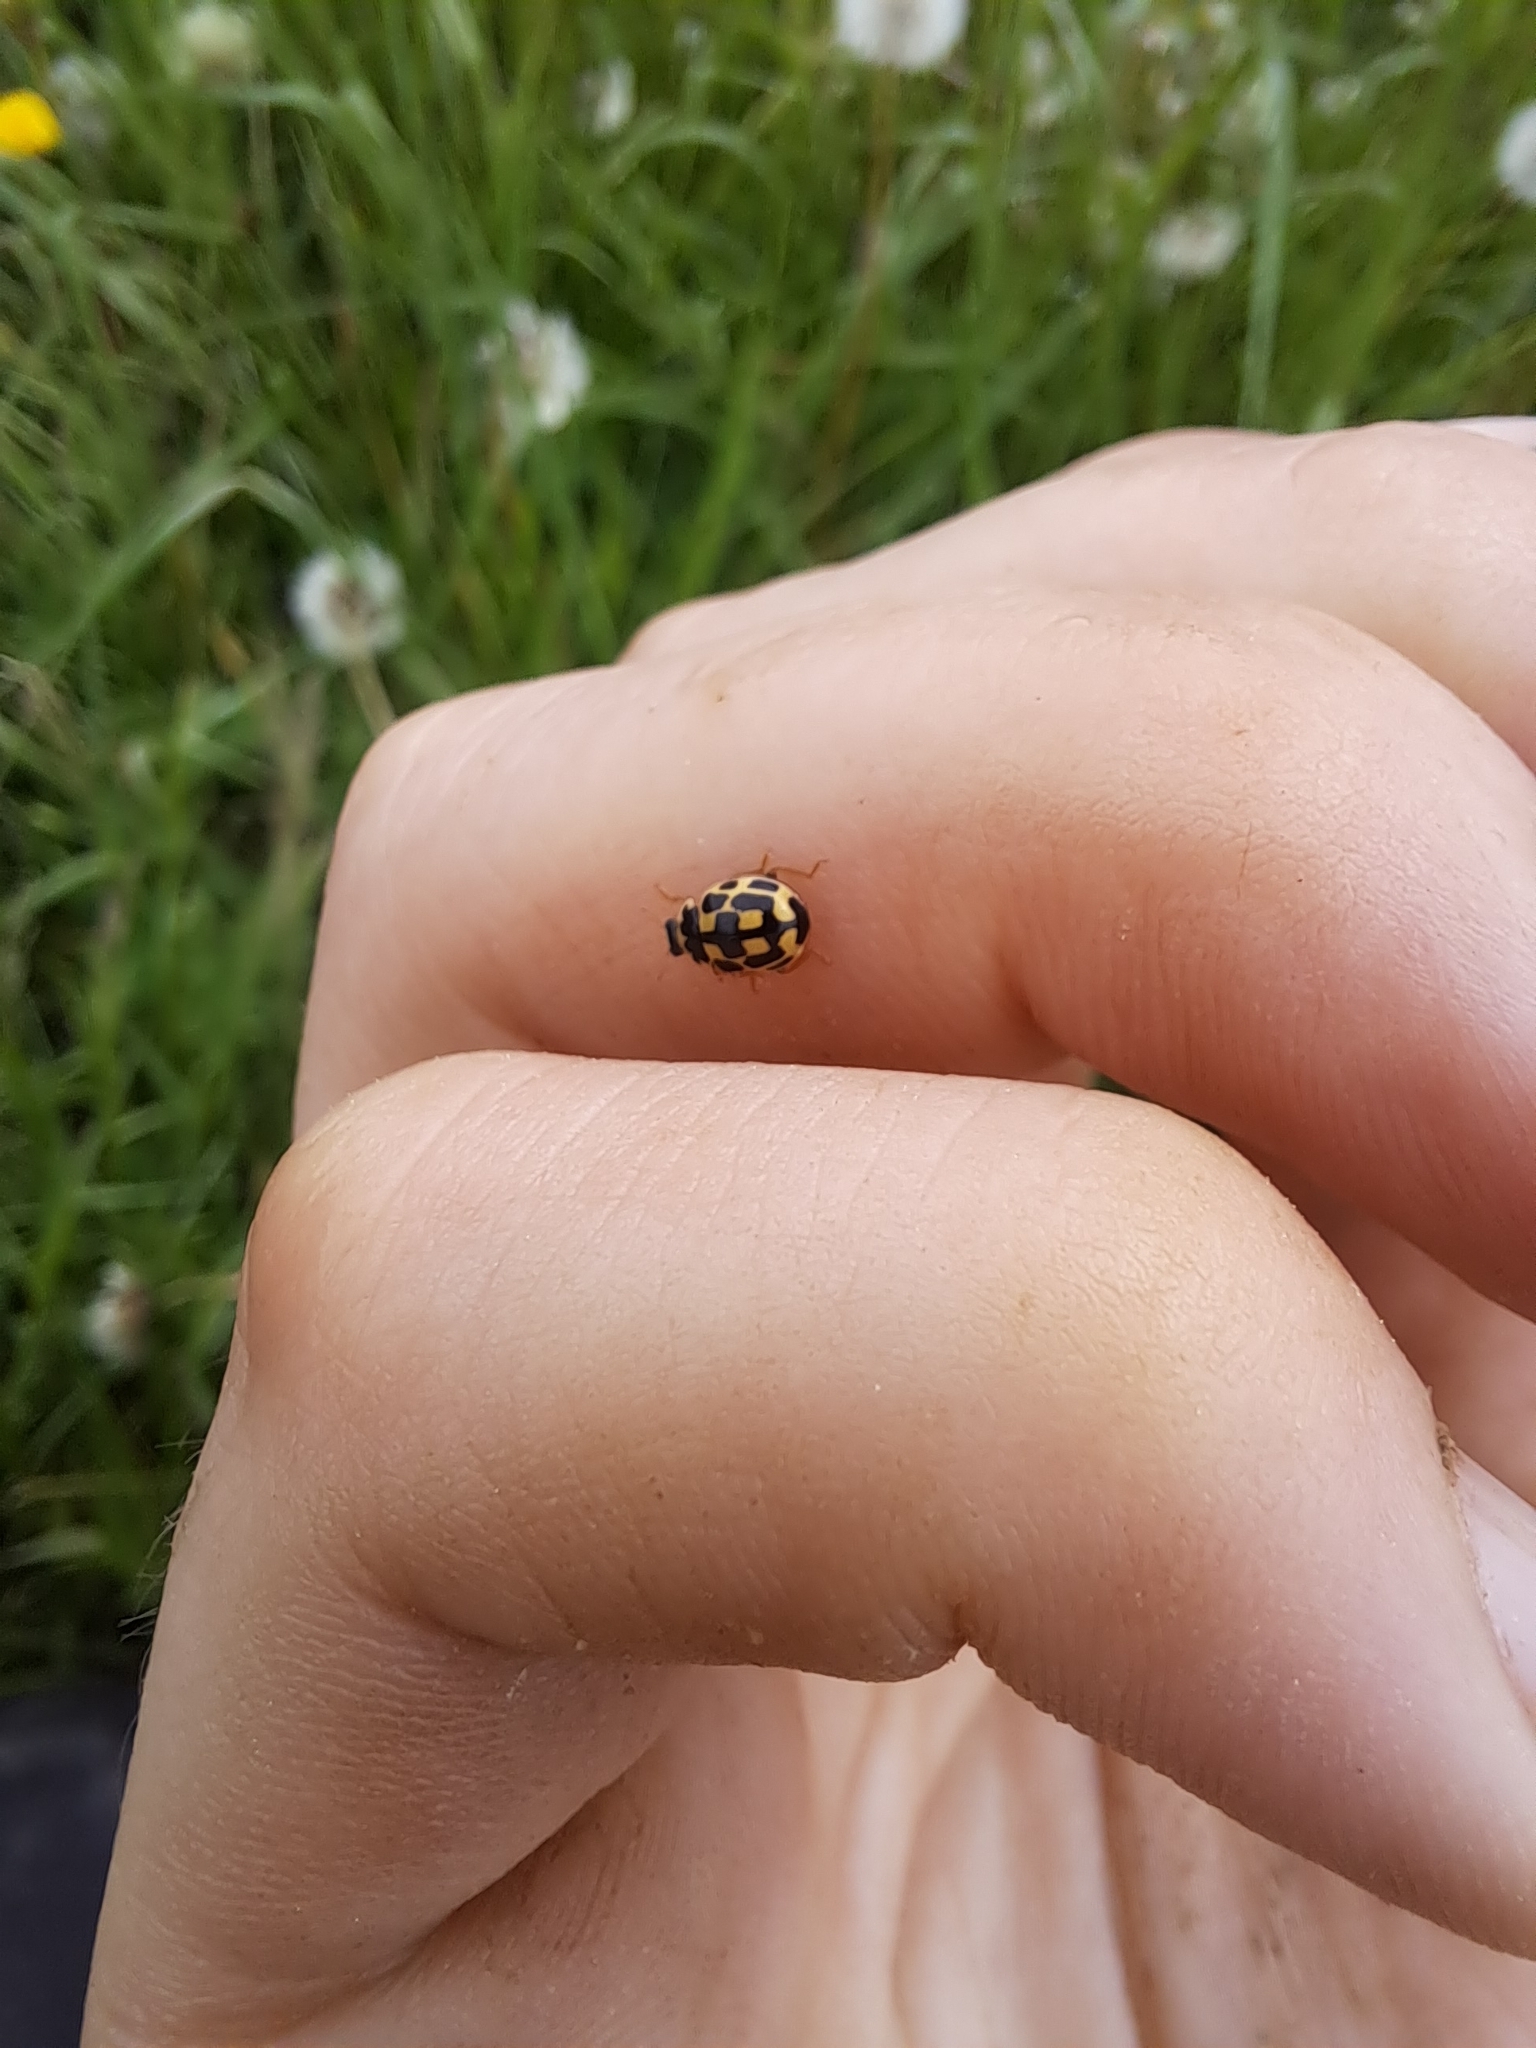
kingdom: Animalia
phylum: Arthropoda
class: Insecta
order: Coleoptera
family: Coccinellidae
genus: Propylaea
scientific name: Propylaea quatuordecimpunctata
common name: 14-spotted ladybird beetle
